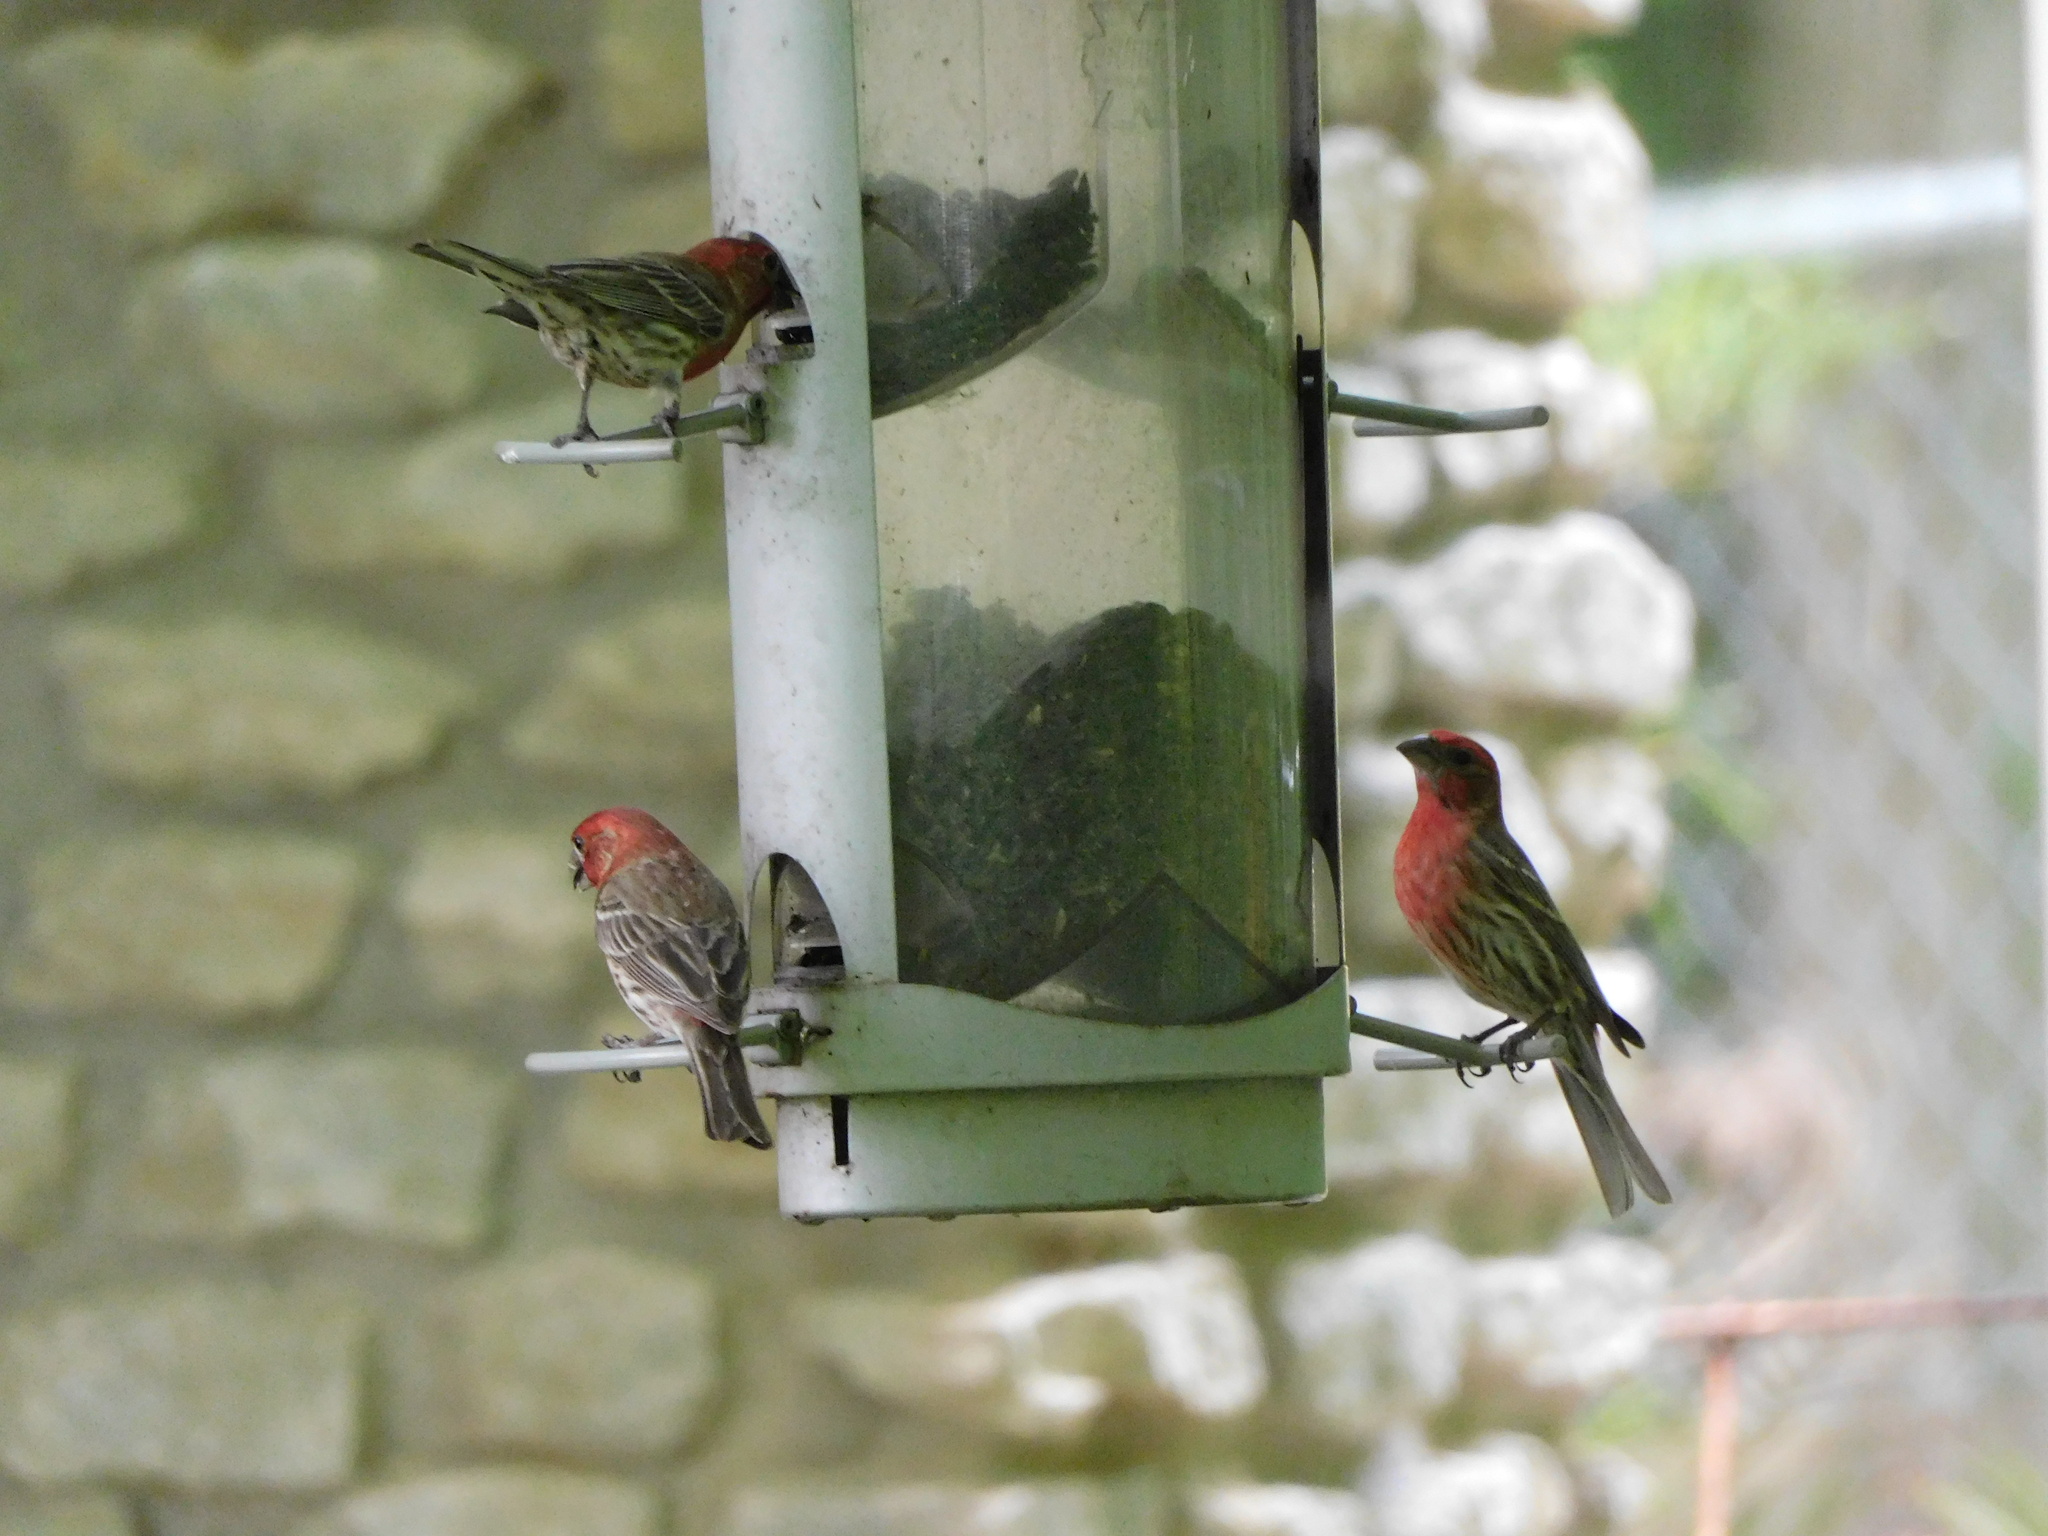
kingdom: Animalia
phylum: Chordata
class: Aves
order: Passeriformes
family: Fringillidae
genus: Haemorhous
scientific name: Haemorhous mexicanus
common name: House finch
